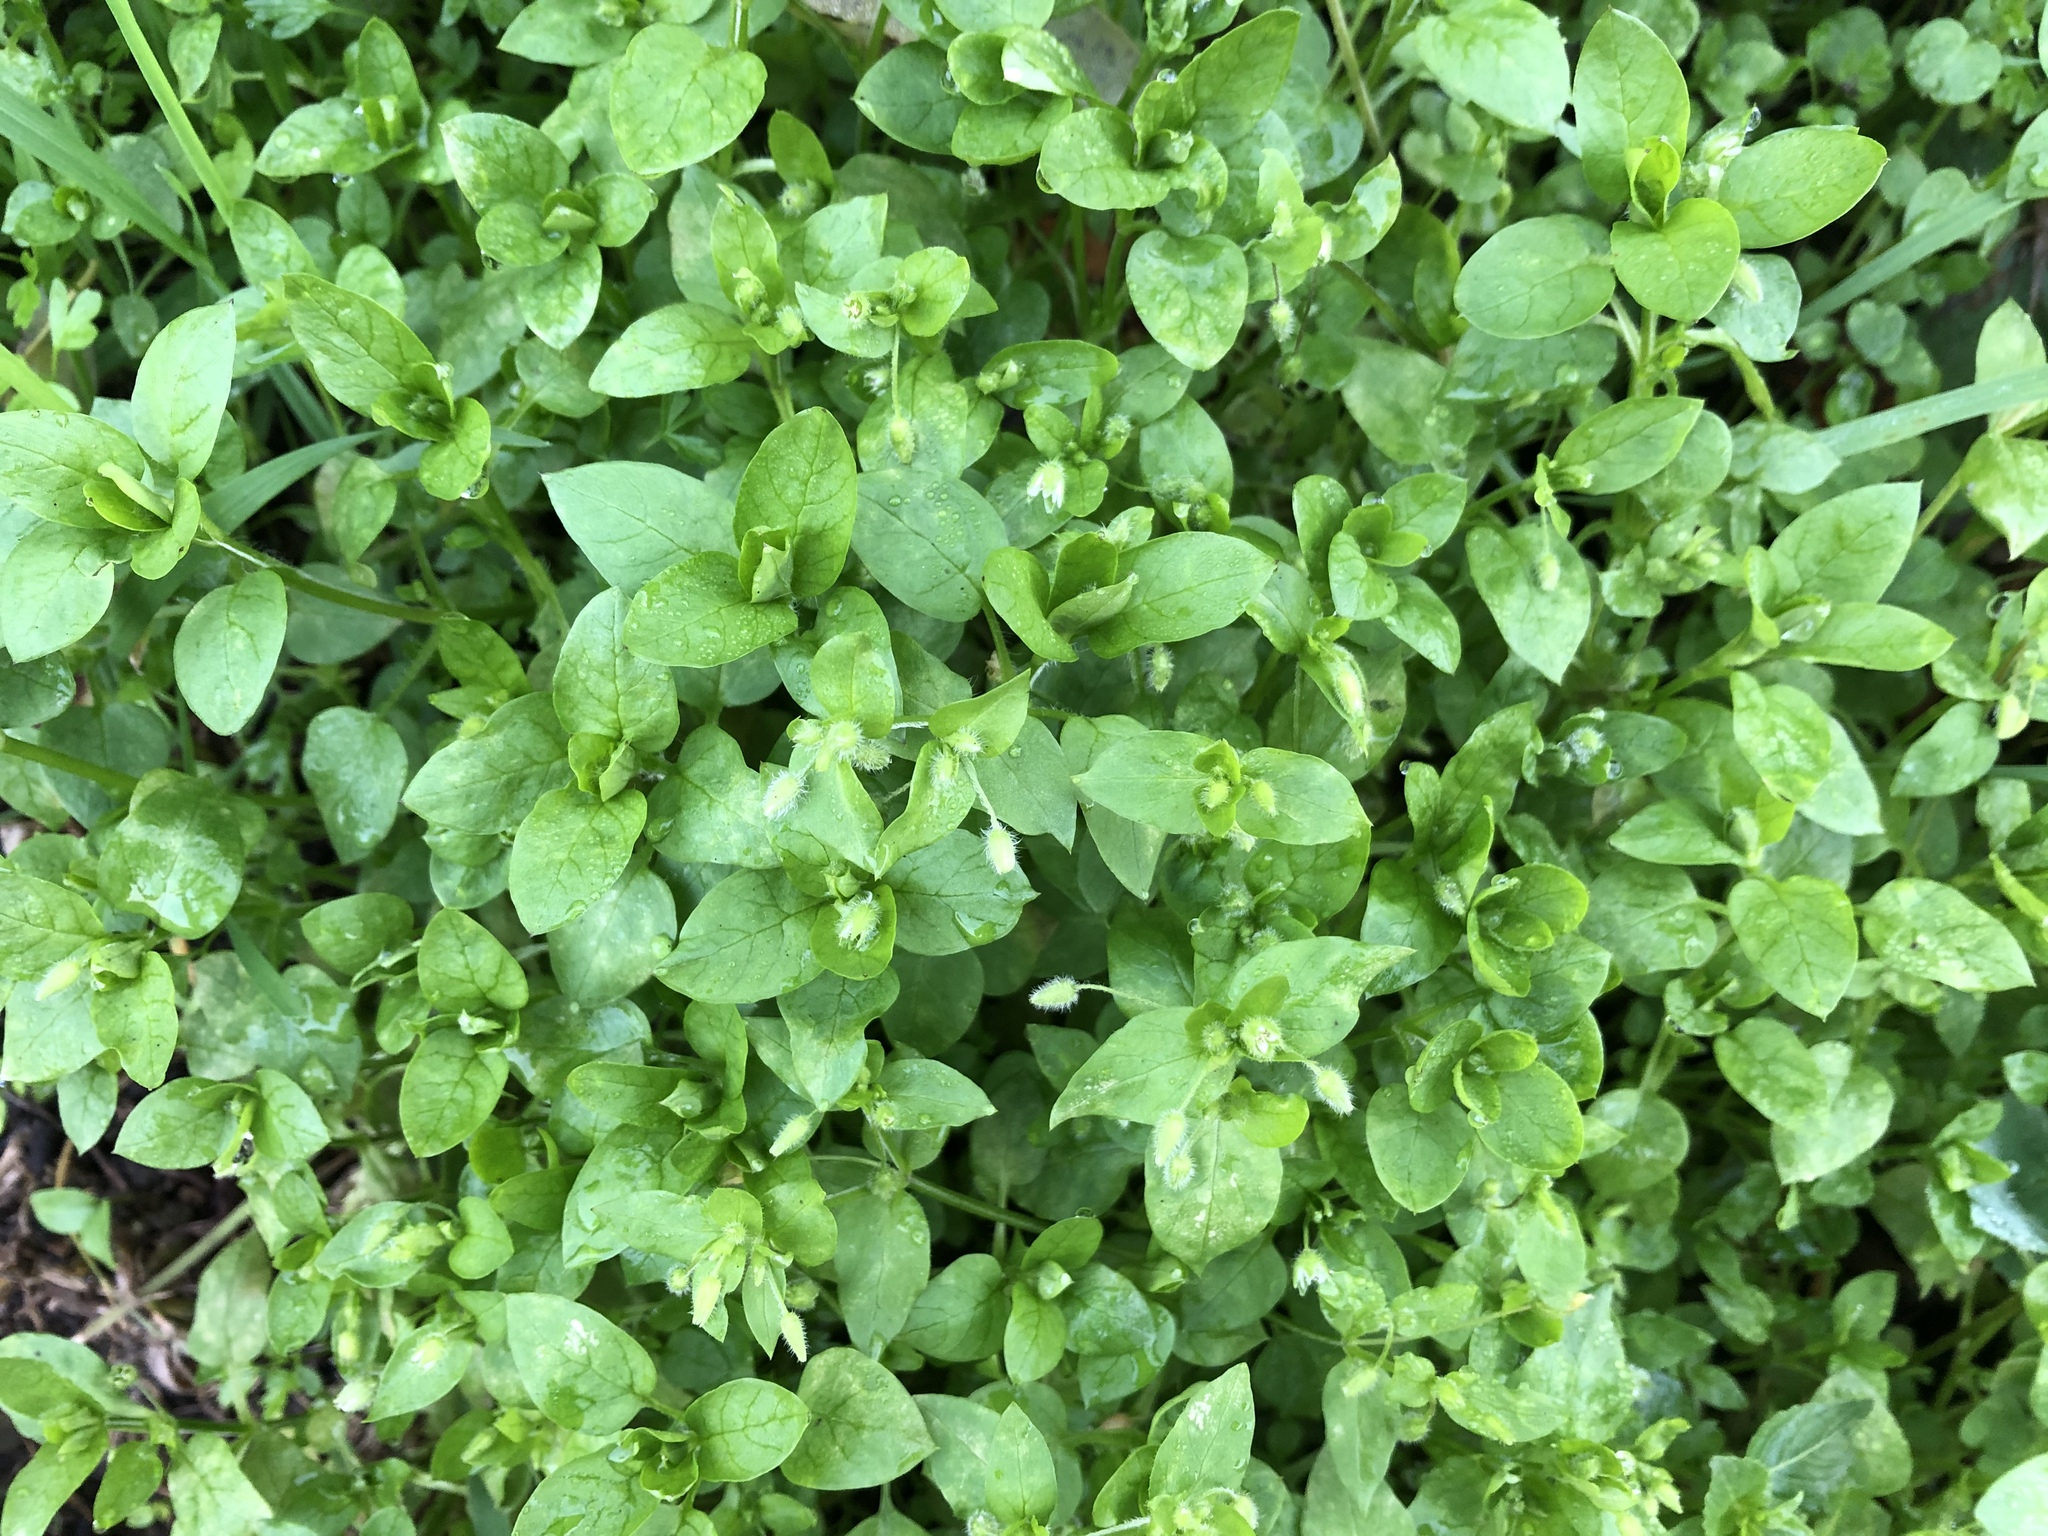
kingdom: Plantae
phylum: Tracheophyta
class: Magnoliopsida
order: Caryophyllales
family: Caryophyllaceae
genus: Stellaria
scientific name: Stellaria media
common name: Common chickweed
